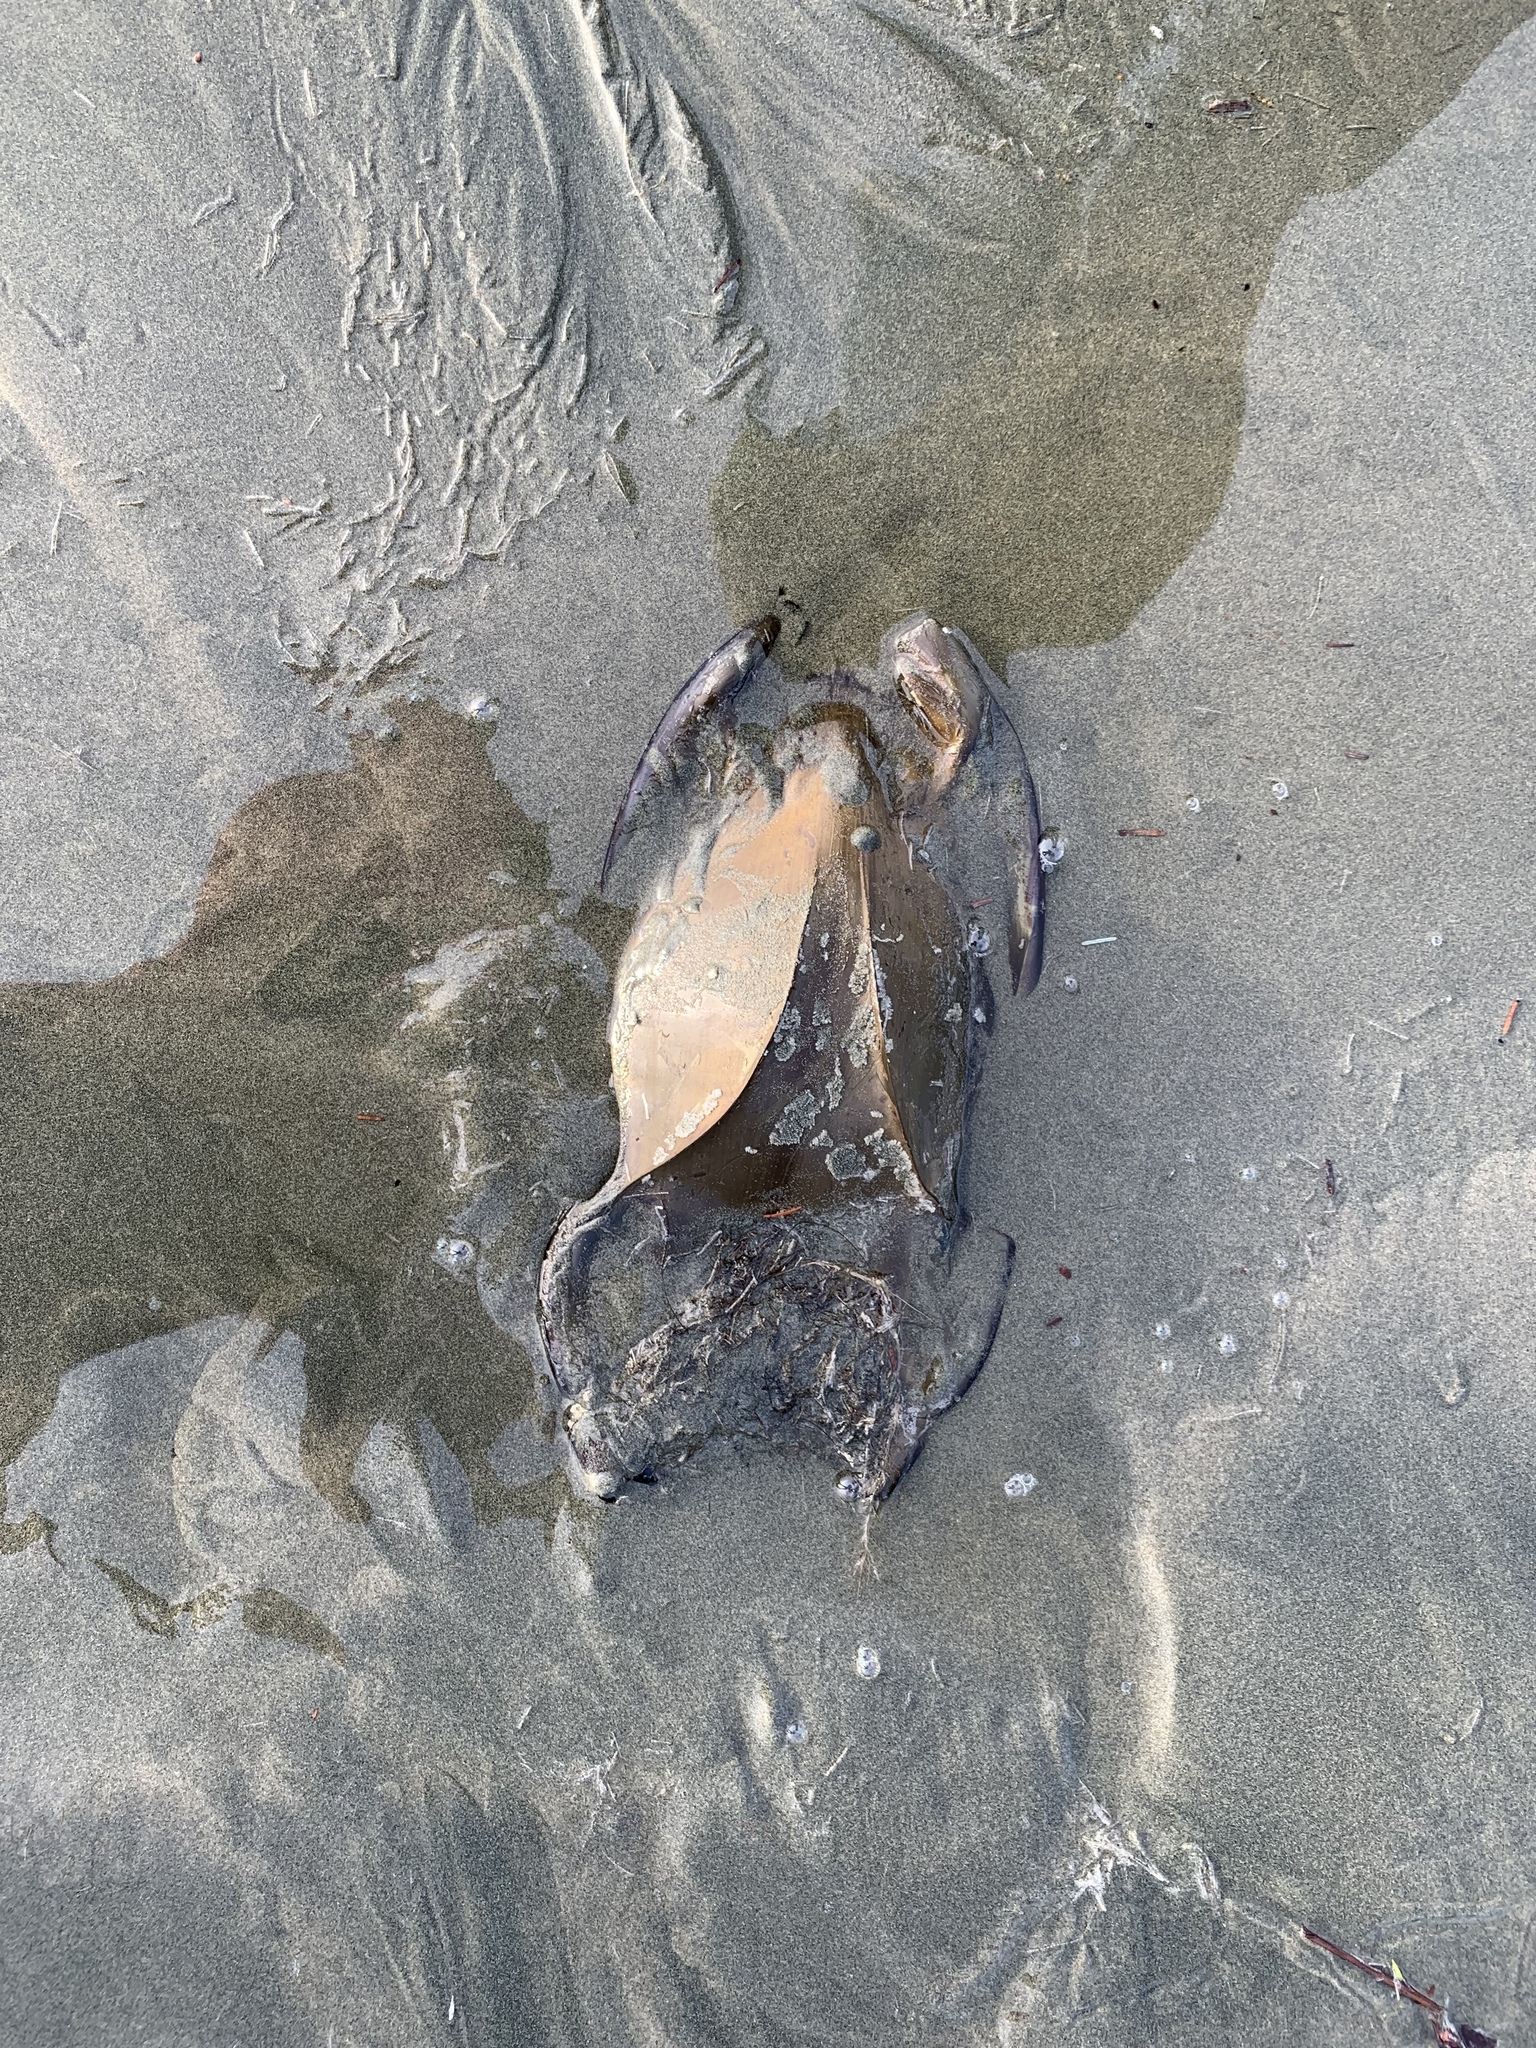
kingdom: Animalia
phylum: Chordata
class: Elasmobranchii
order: Rajiformes
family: Rajidae
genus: Beringraja
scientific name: Beringraja binoculata
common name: Big skate
